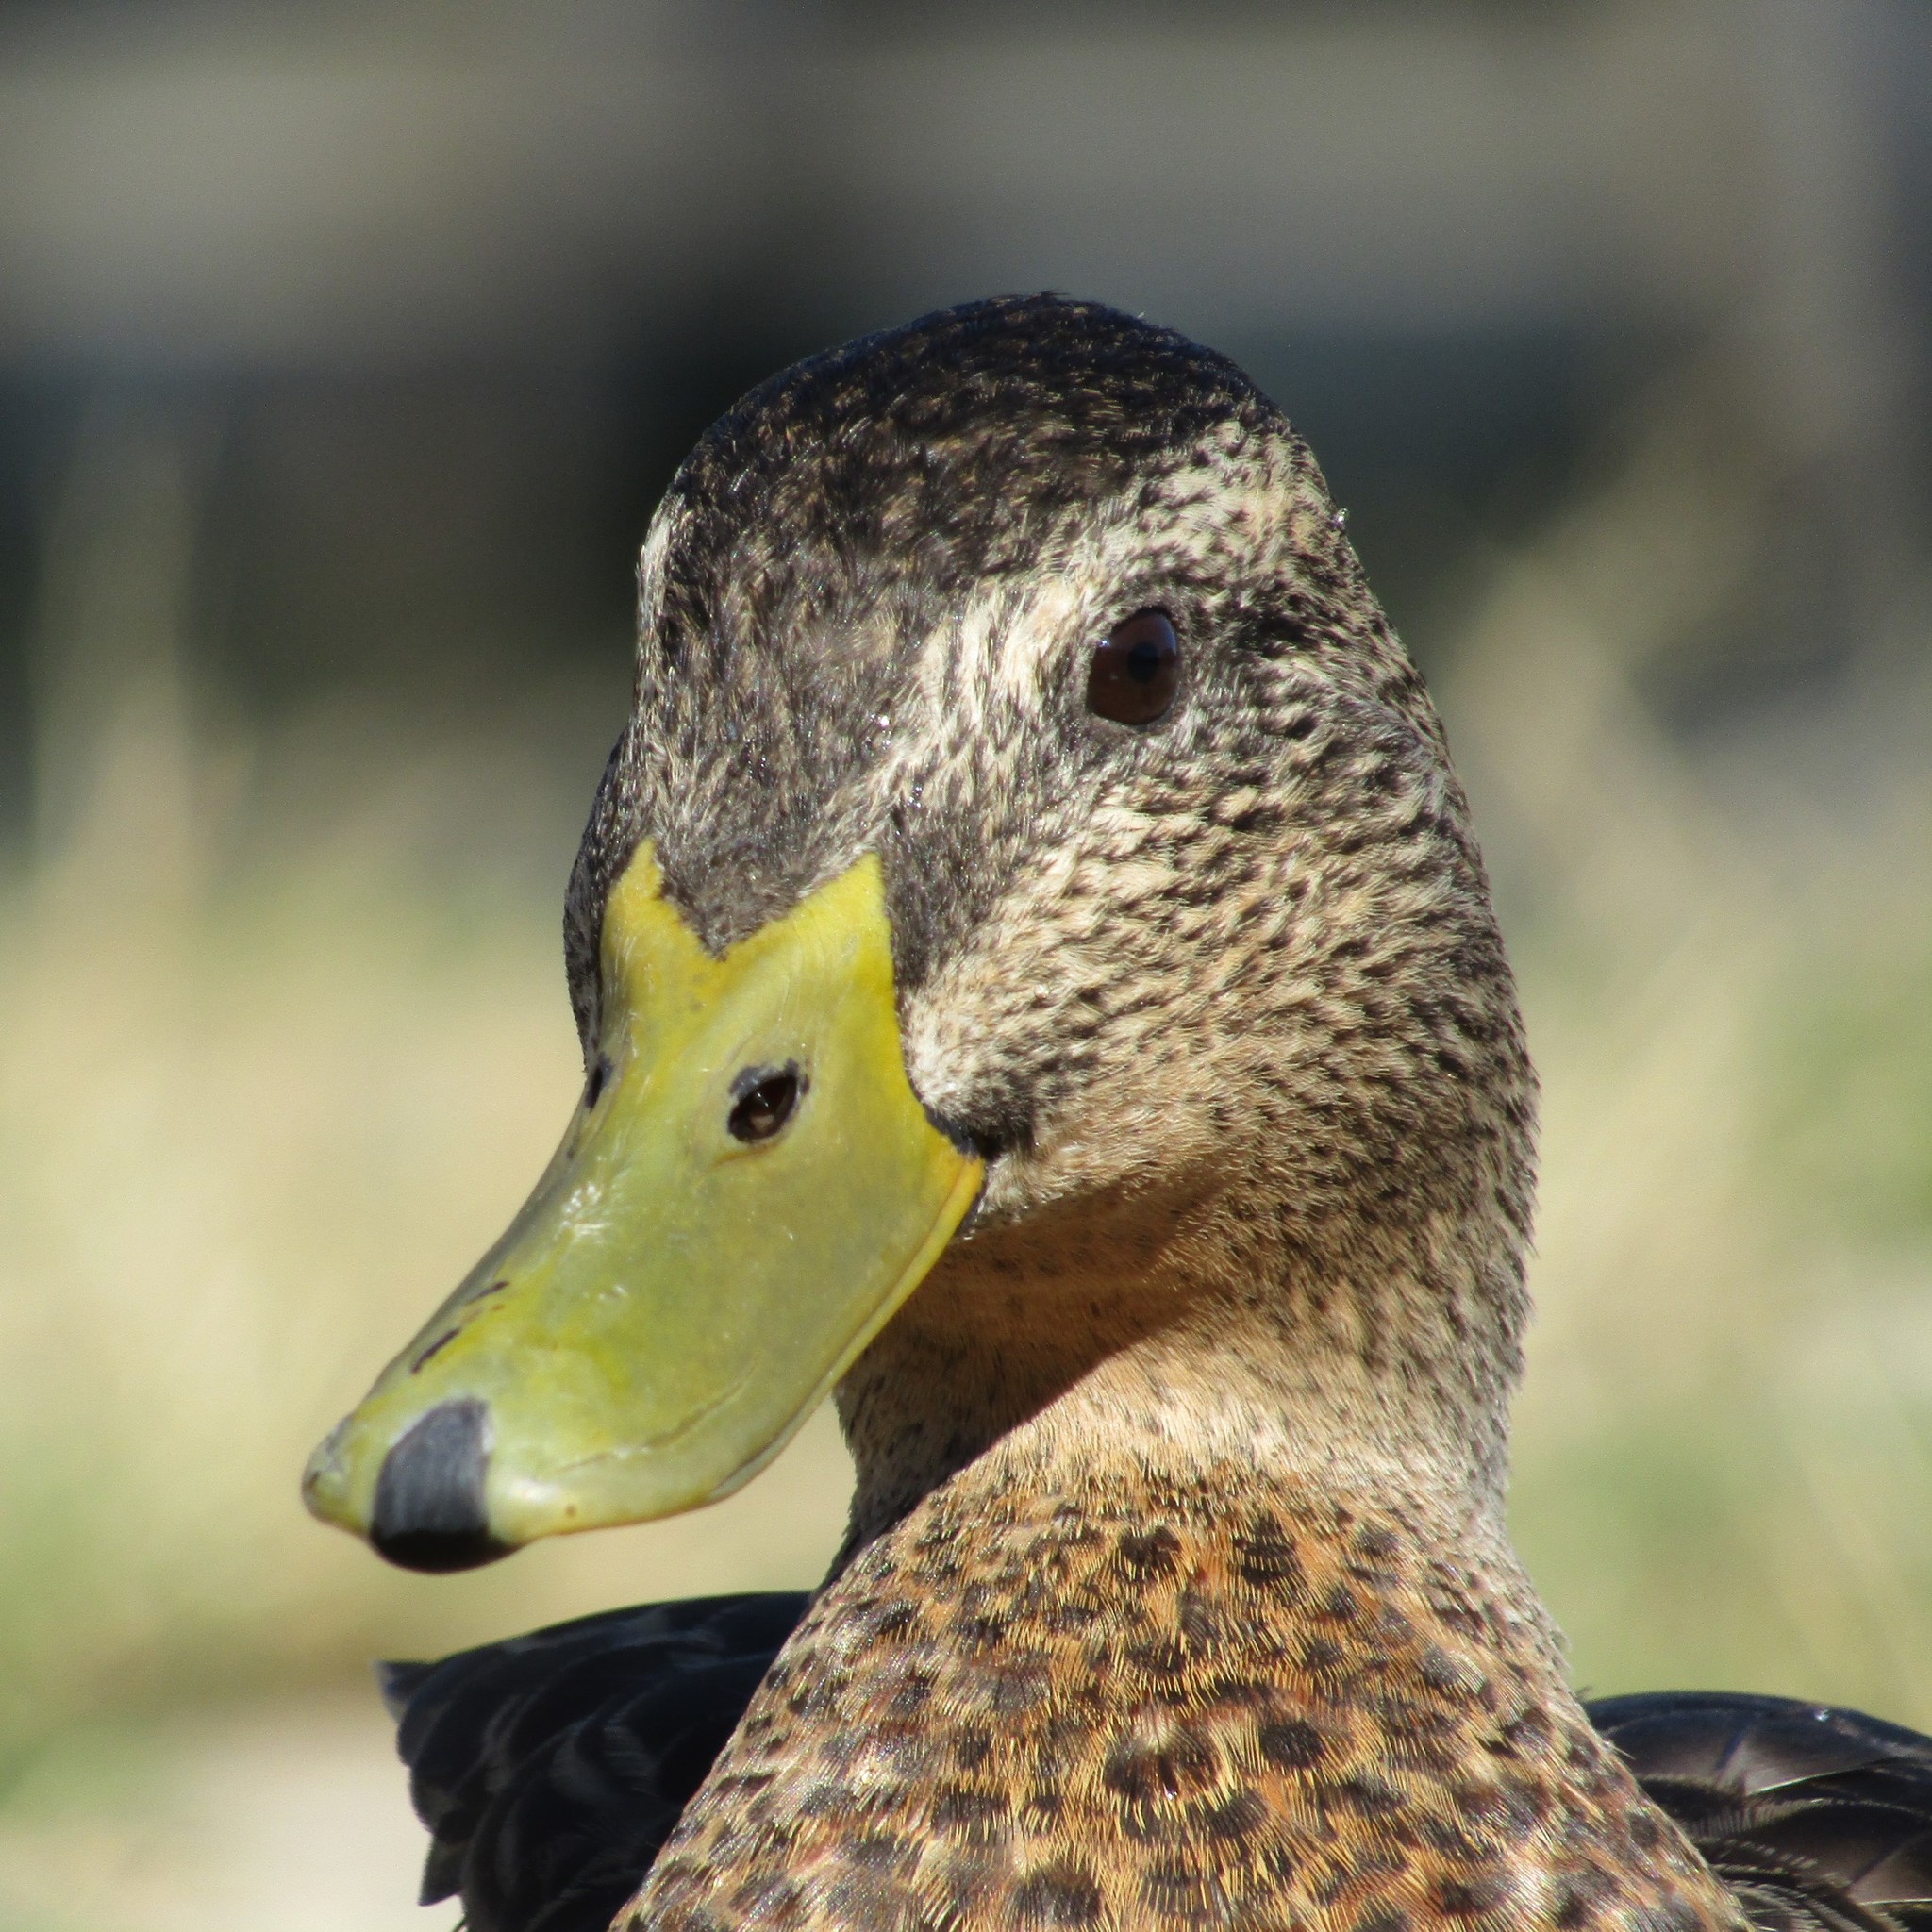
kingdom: Animalia
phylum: Chordata
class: Aves
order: Anseriformes
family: Anatidae
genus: Anas
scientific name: Anas
